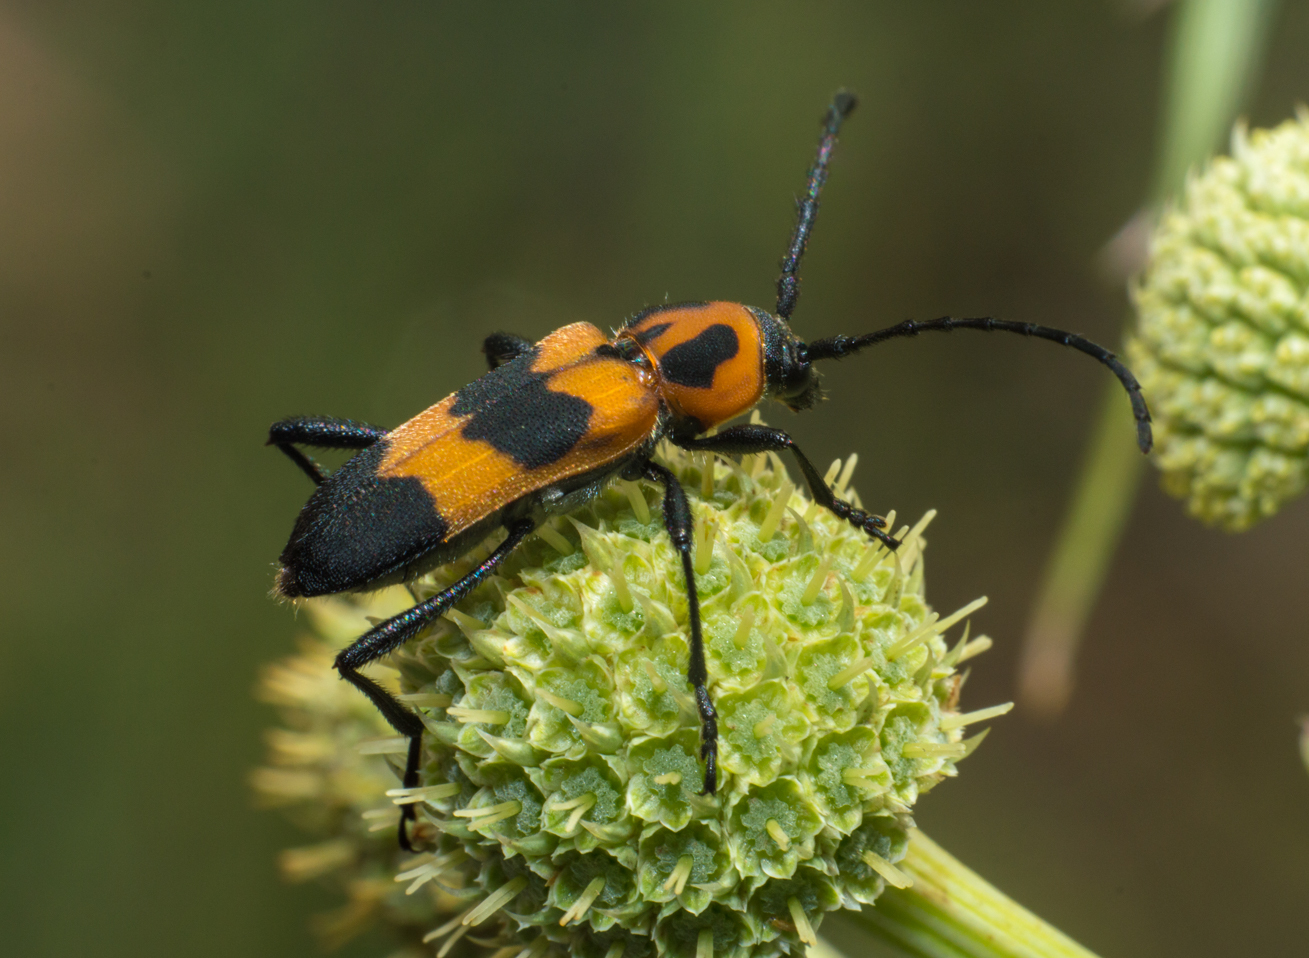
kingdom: Animalia
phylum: Arthropoda
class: Insecta
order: Coleoptera
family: Cerambycidae
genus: Erythrochiton
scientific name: Erythrochiton jucundum
